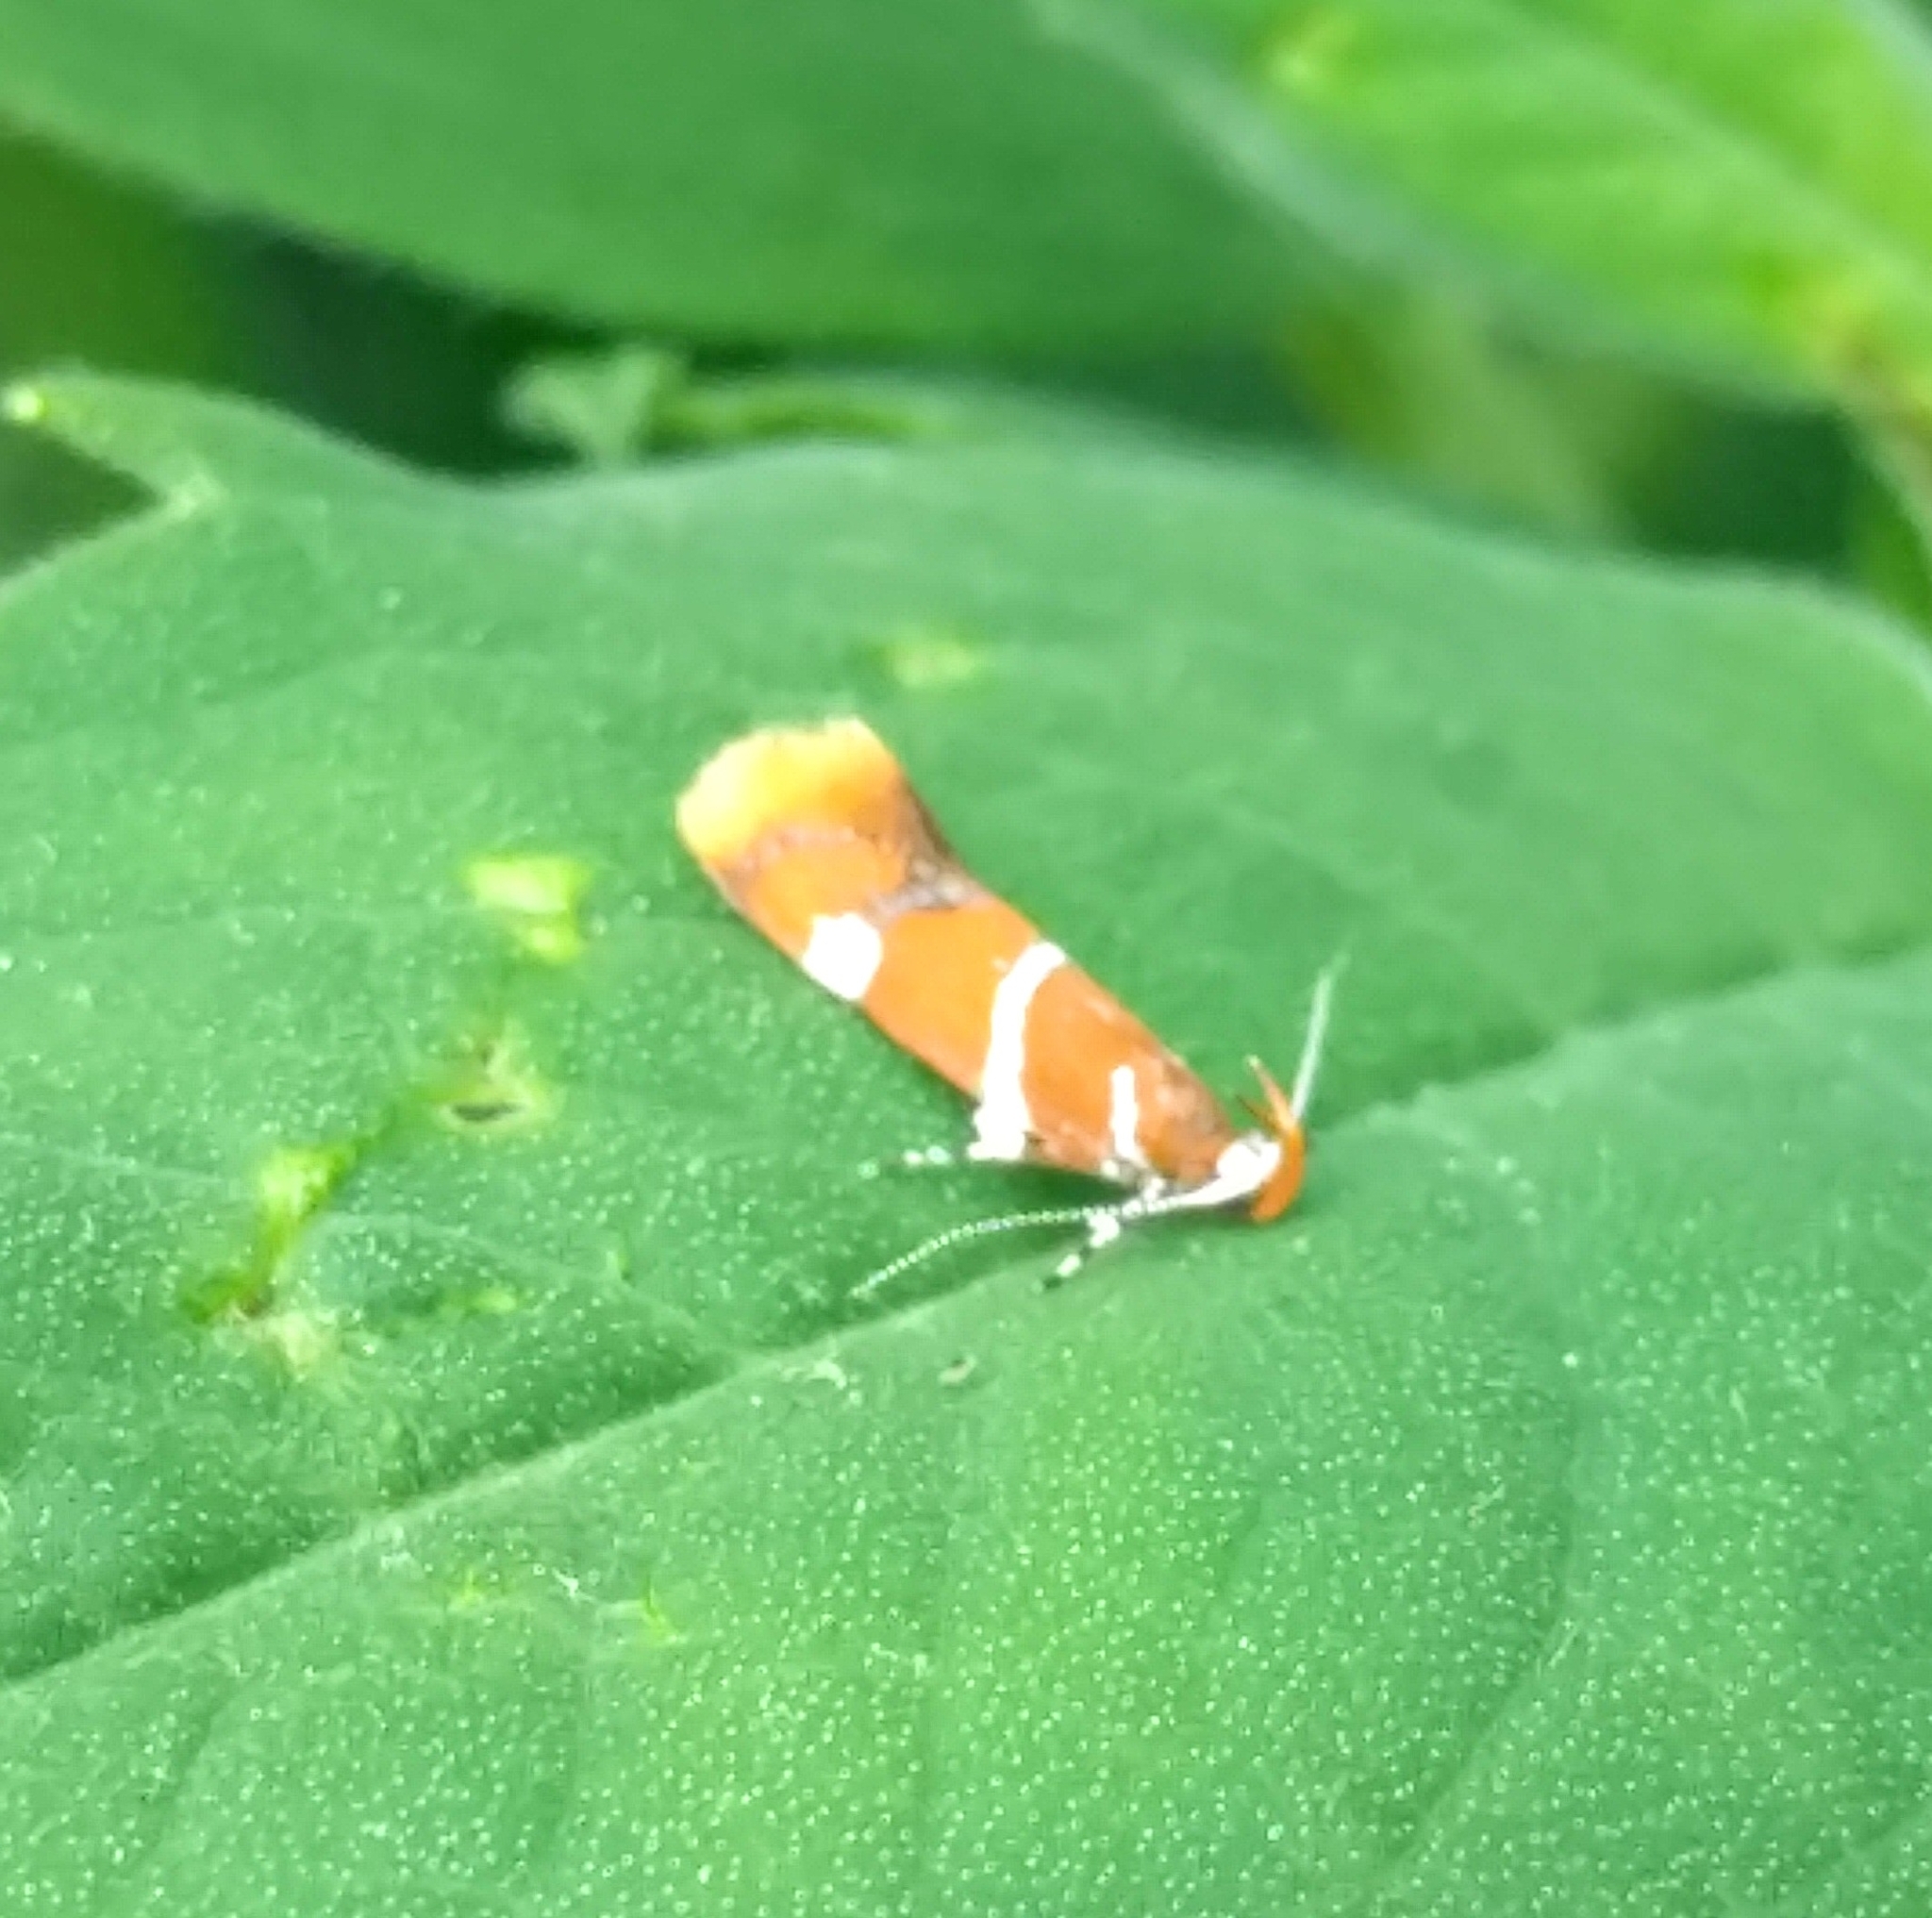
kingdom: Animalia
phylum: Arthropoda
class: Insecta
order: Lepidoptera
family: Oecophoridae
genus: Promalactis
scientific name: Promalactis suzukiella
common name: Moth
